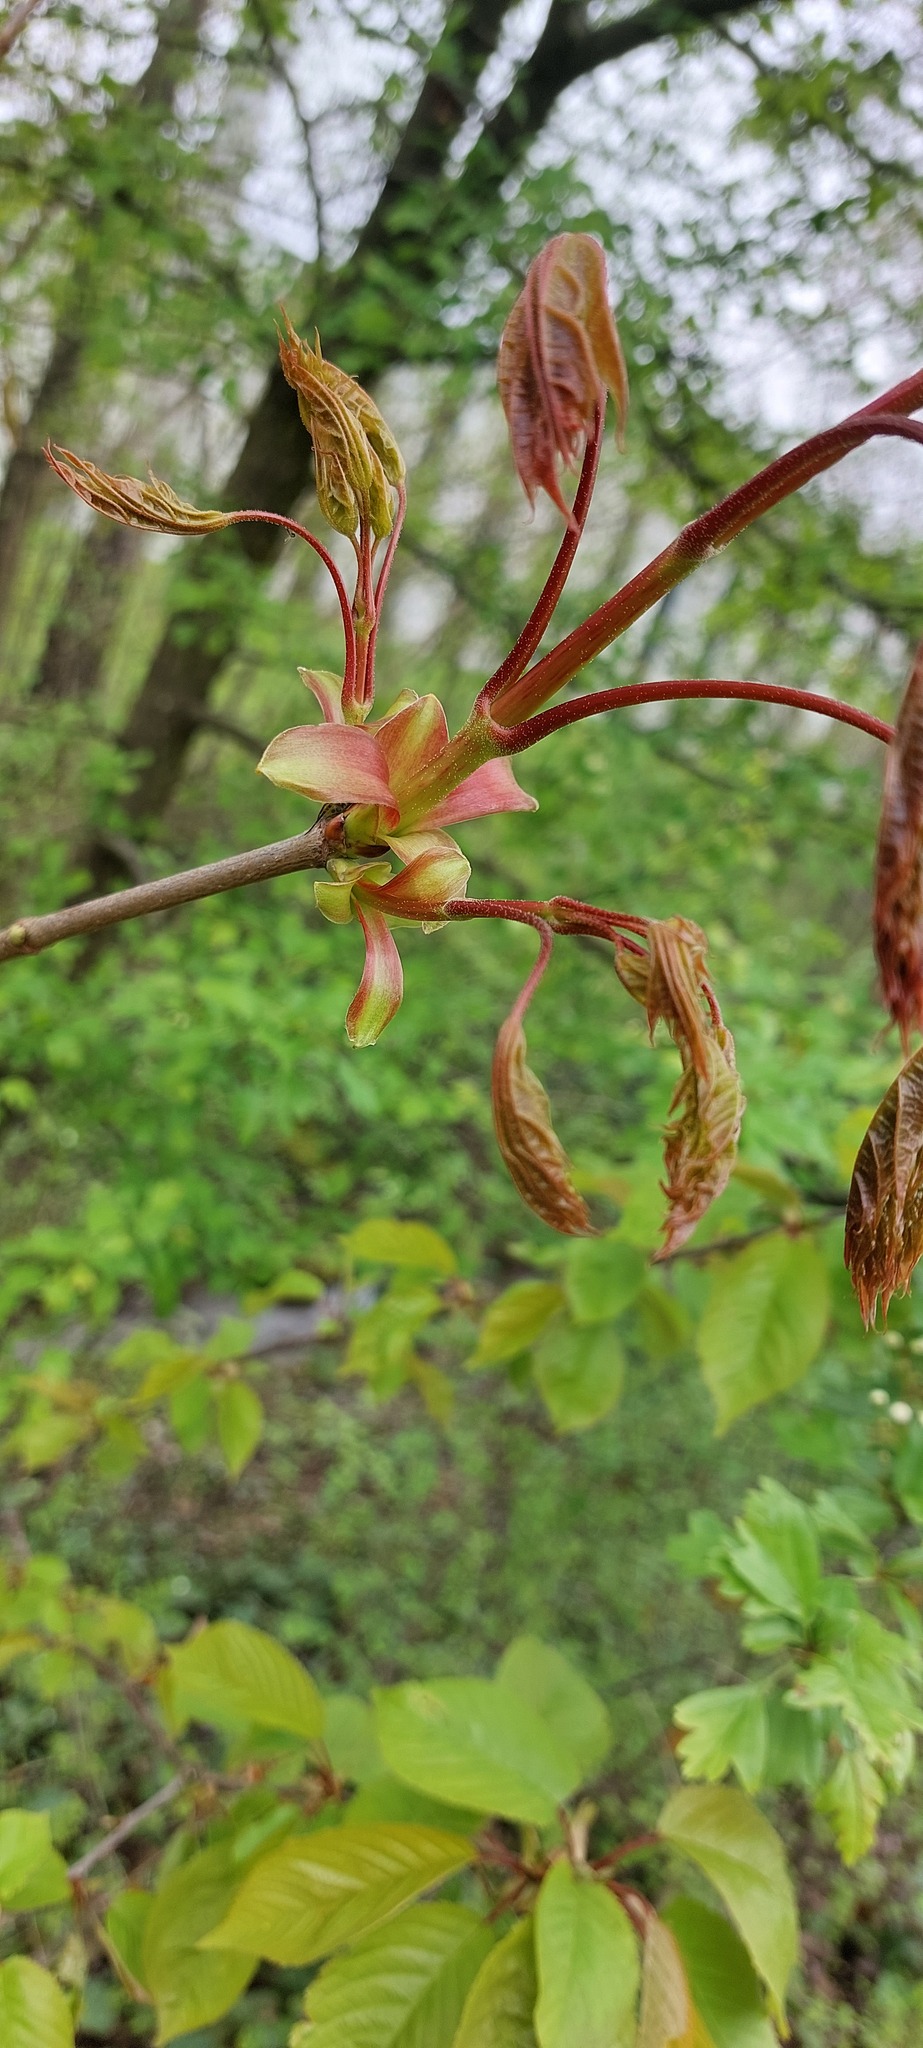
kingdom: Plantae
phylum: Tracheophyta
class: Magnoliopsida
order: Sapindales
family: Sapindaceae
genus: Acer
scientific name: Acer platanoides
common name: Norway maple
